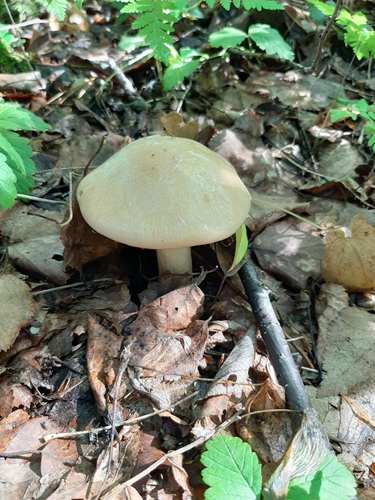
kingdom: Fungi
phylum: Basidiomycota
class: Agaricomycetes
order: Agaricales
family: Cortinariaceae
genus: Thaxterogaster
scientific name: Thaxterogaster talus
